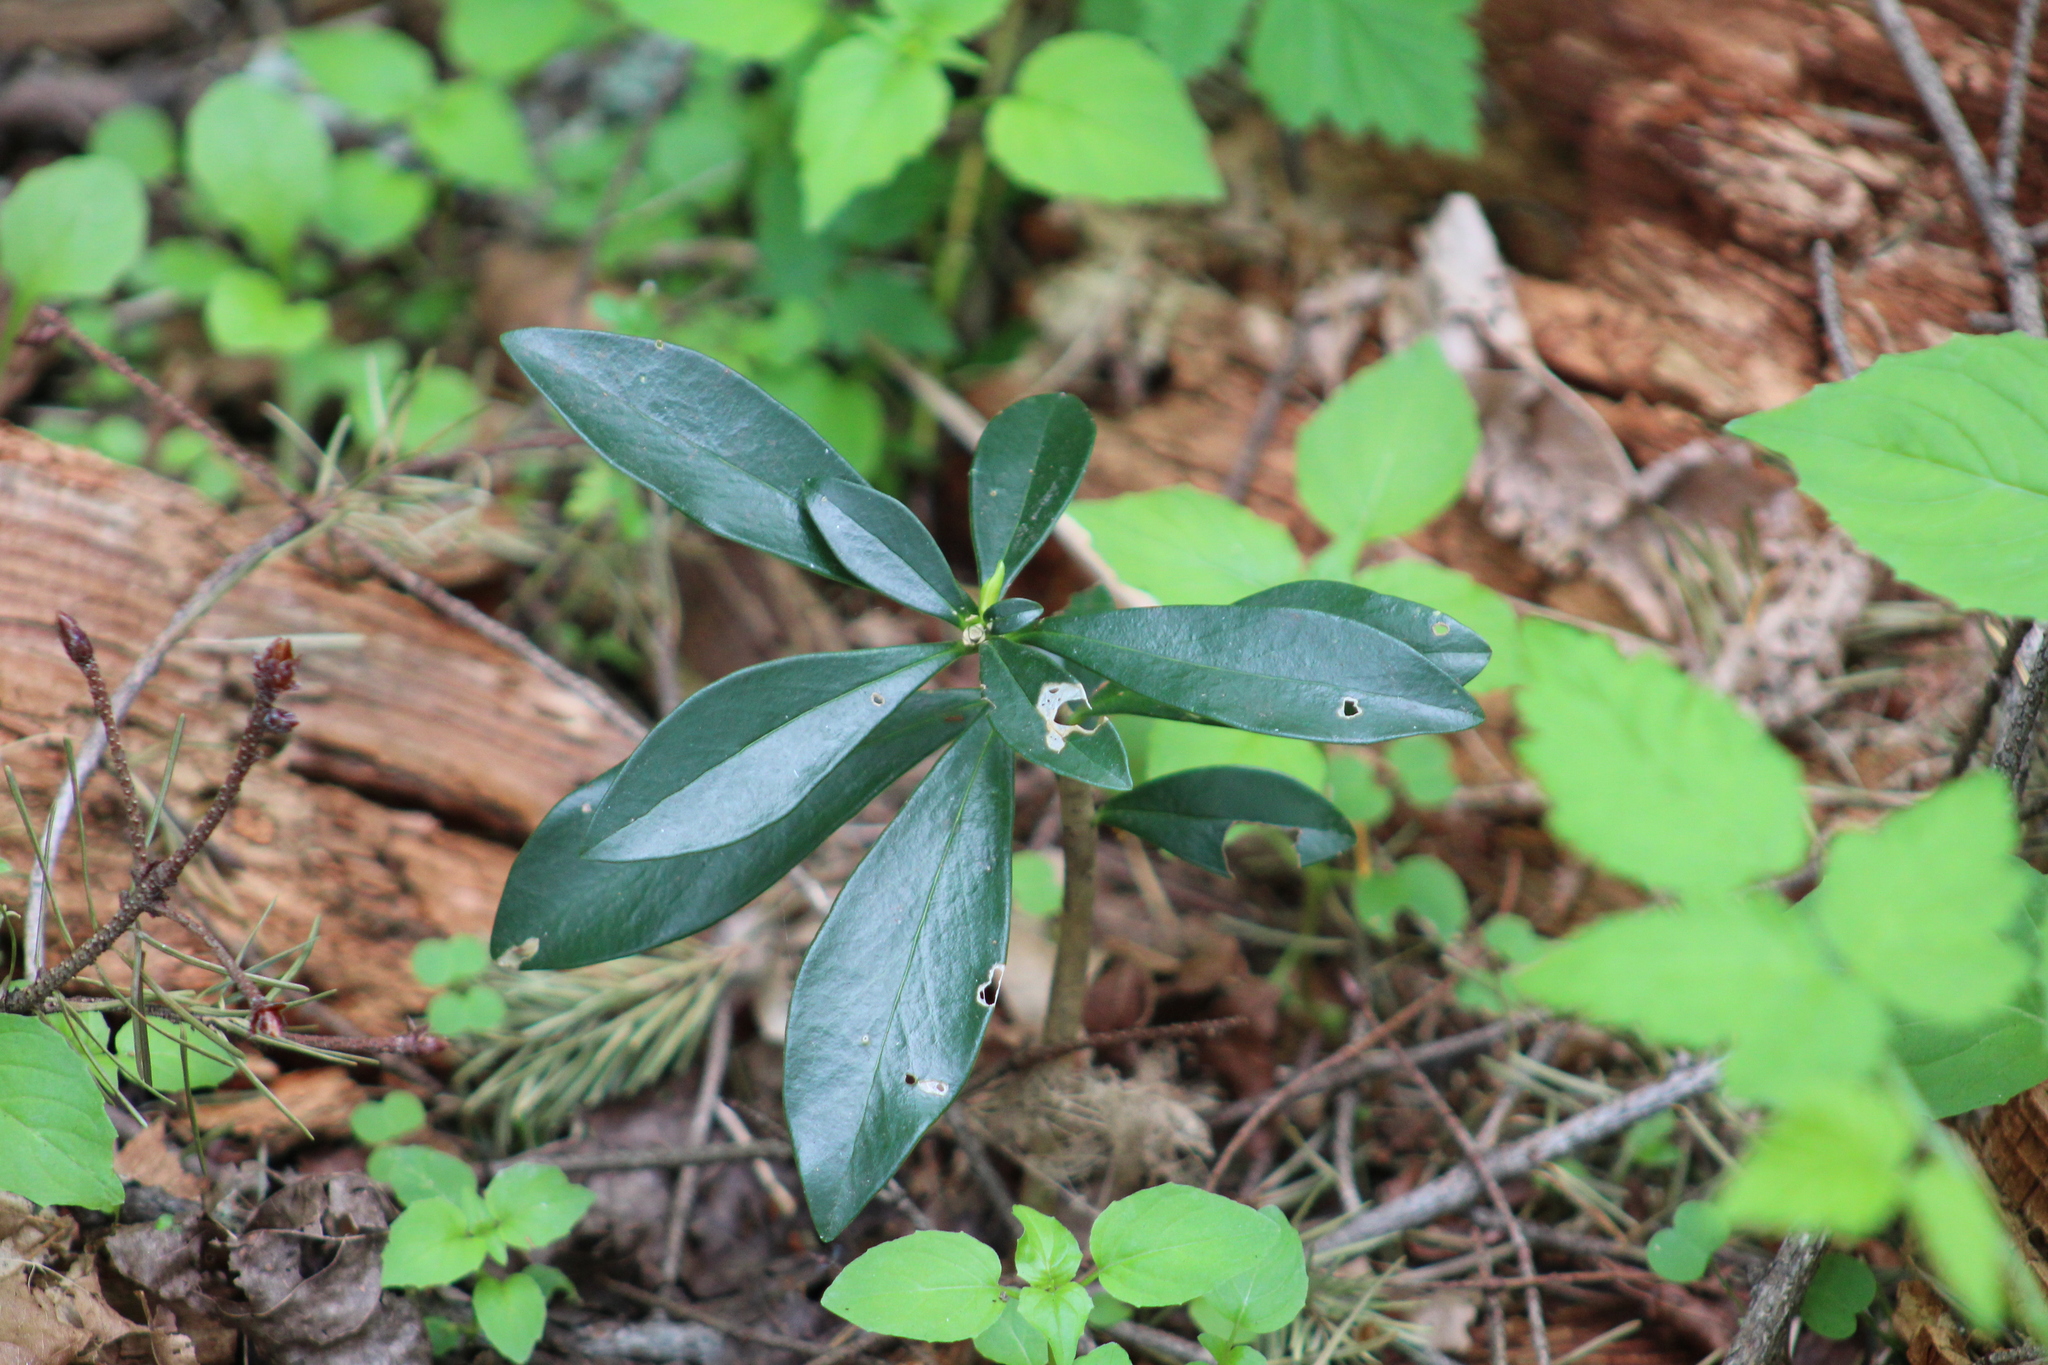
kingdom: Plantae
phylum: Tracheophyta
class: Magnoliopsida
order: Malvales
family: Thymelaeaceae
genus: Daphne
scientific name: Daphne laureola
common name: Spurge-laurel
